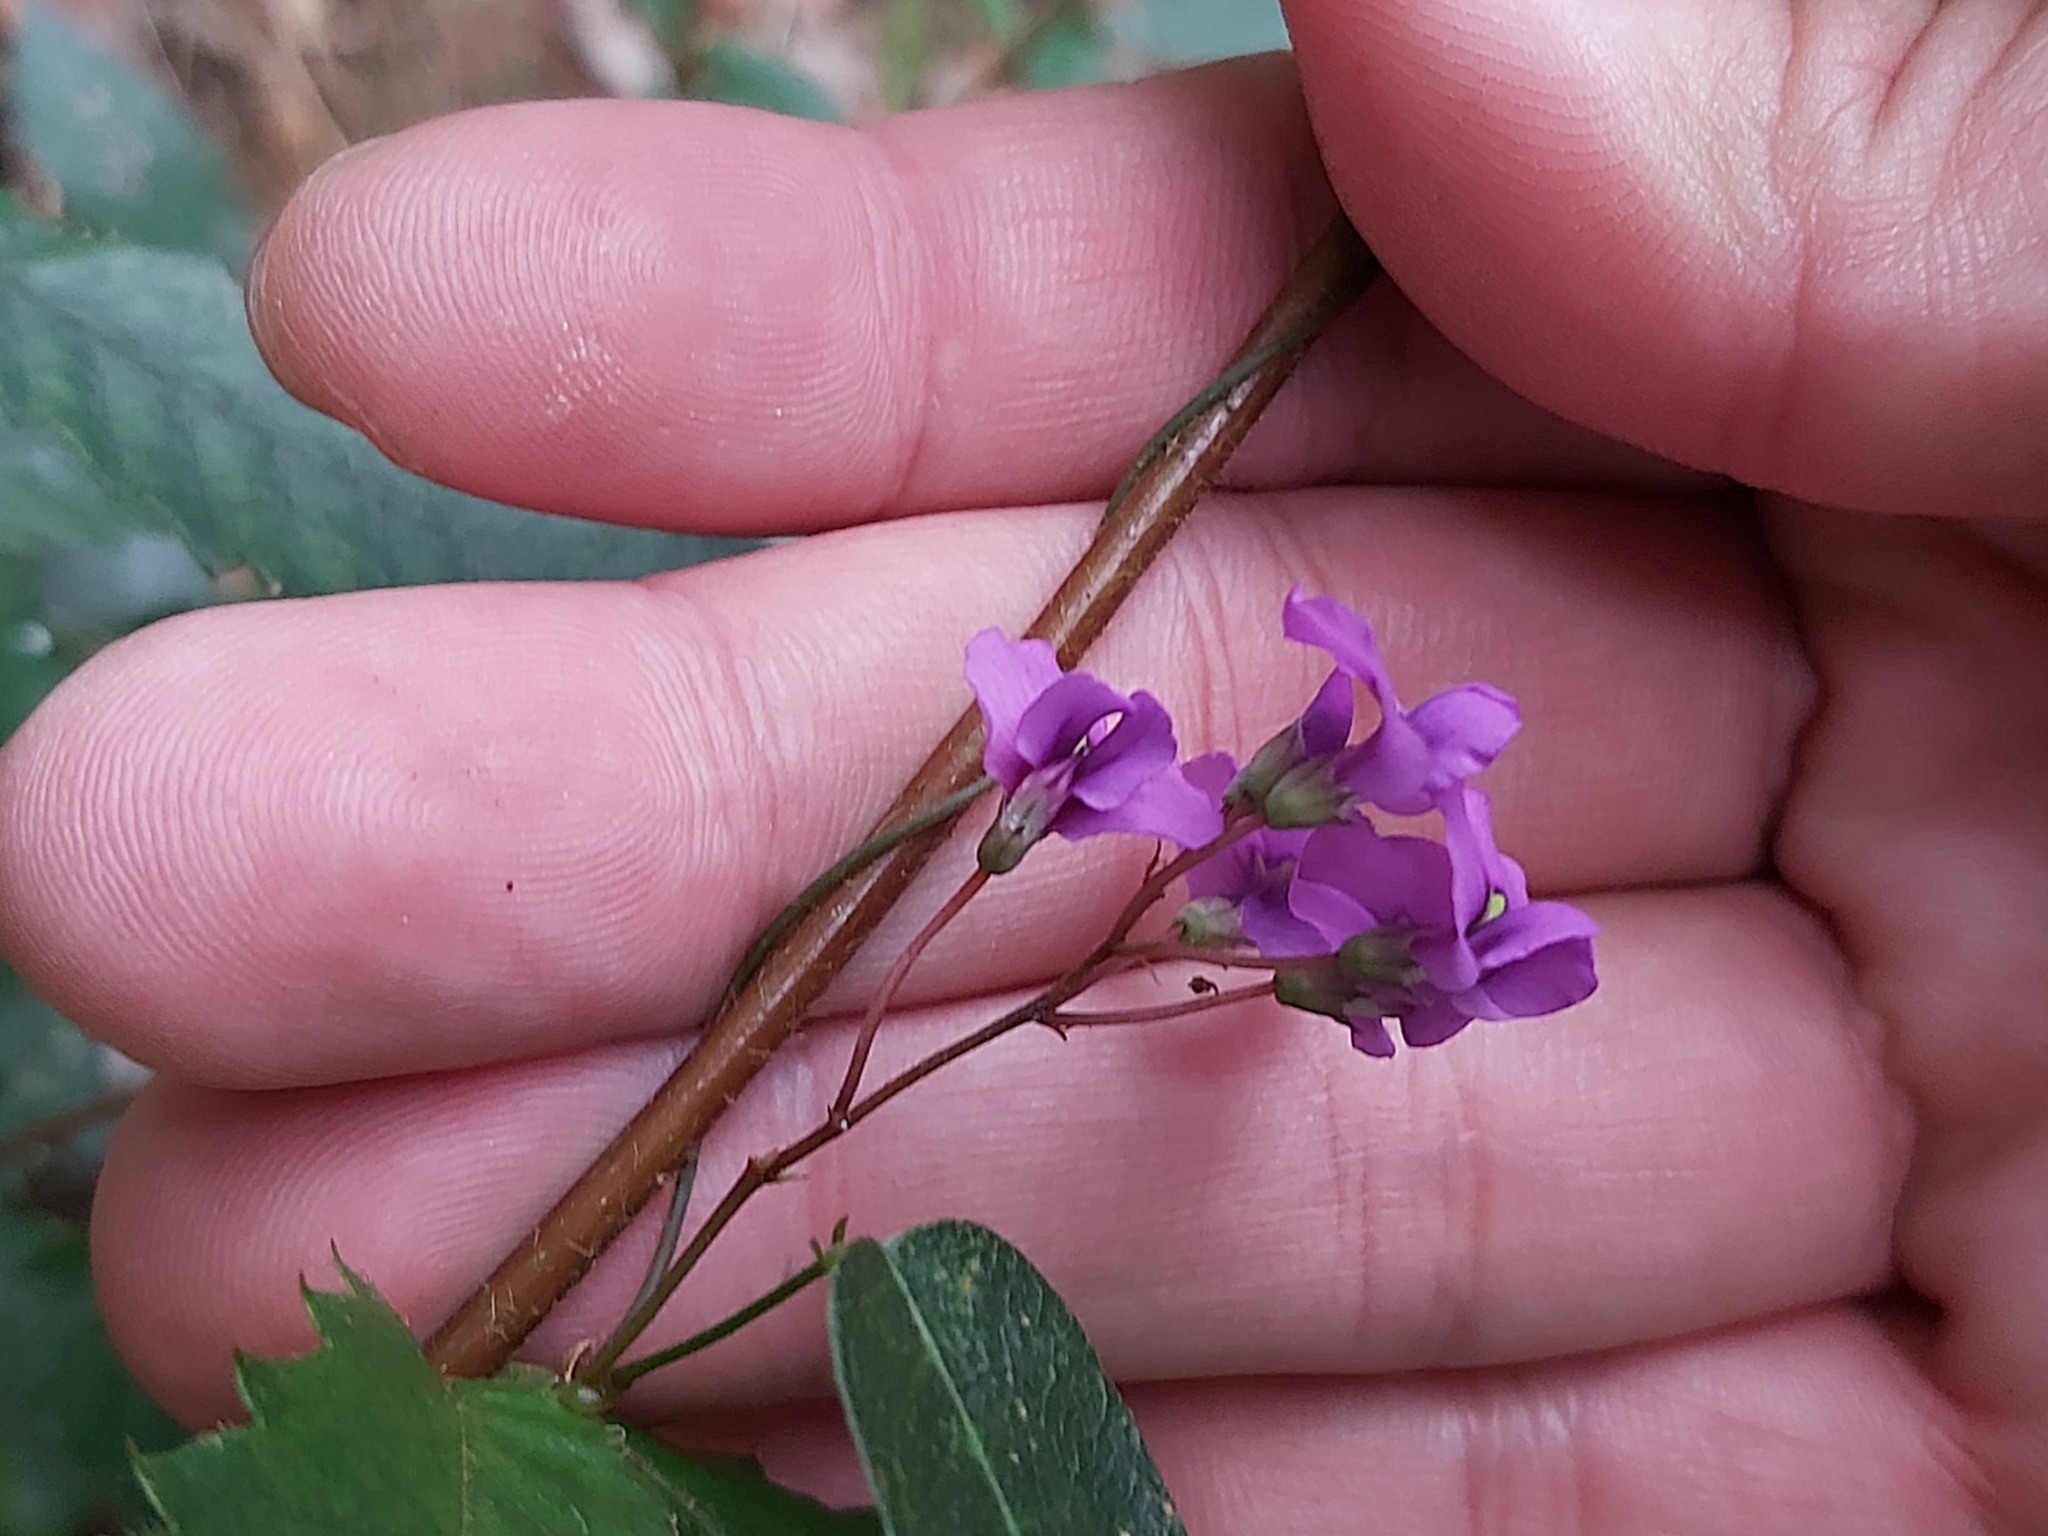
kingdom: Plantae
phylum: Tracheophyta
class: Magnoliopsida
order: Fabales
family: Fabaceae
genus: Hardenbergia
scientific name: Hardenbergia violacea
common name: Coral-pea
